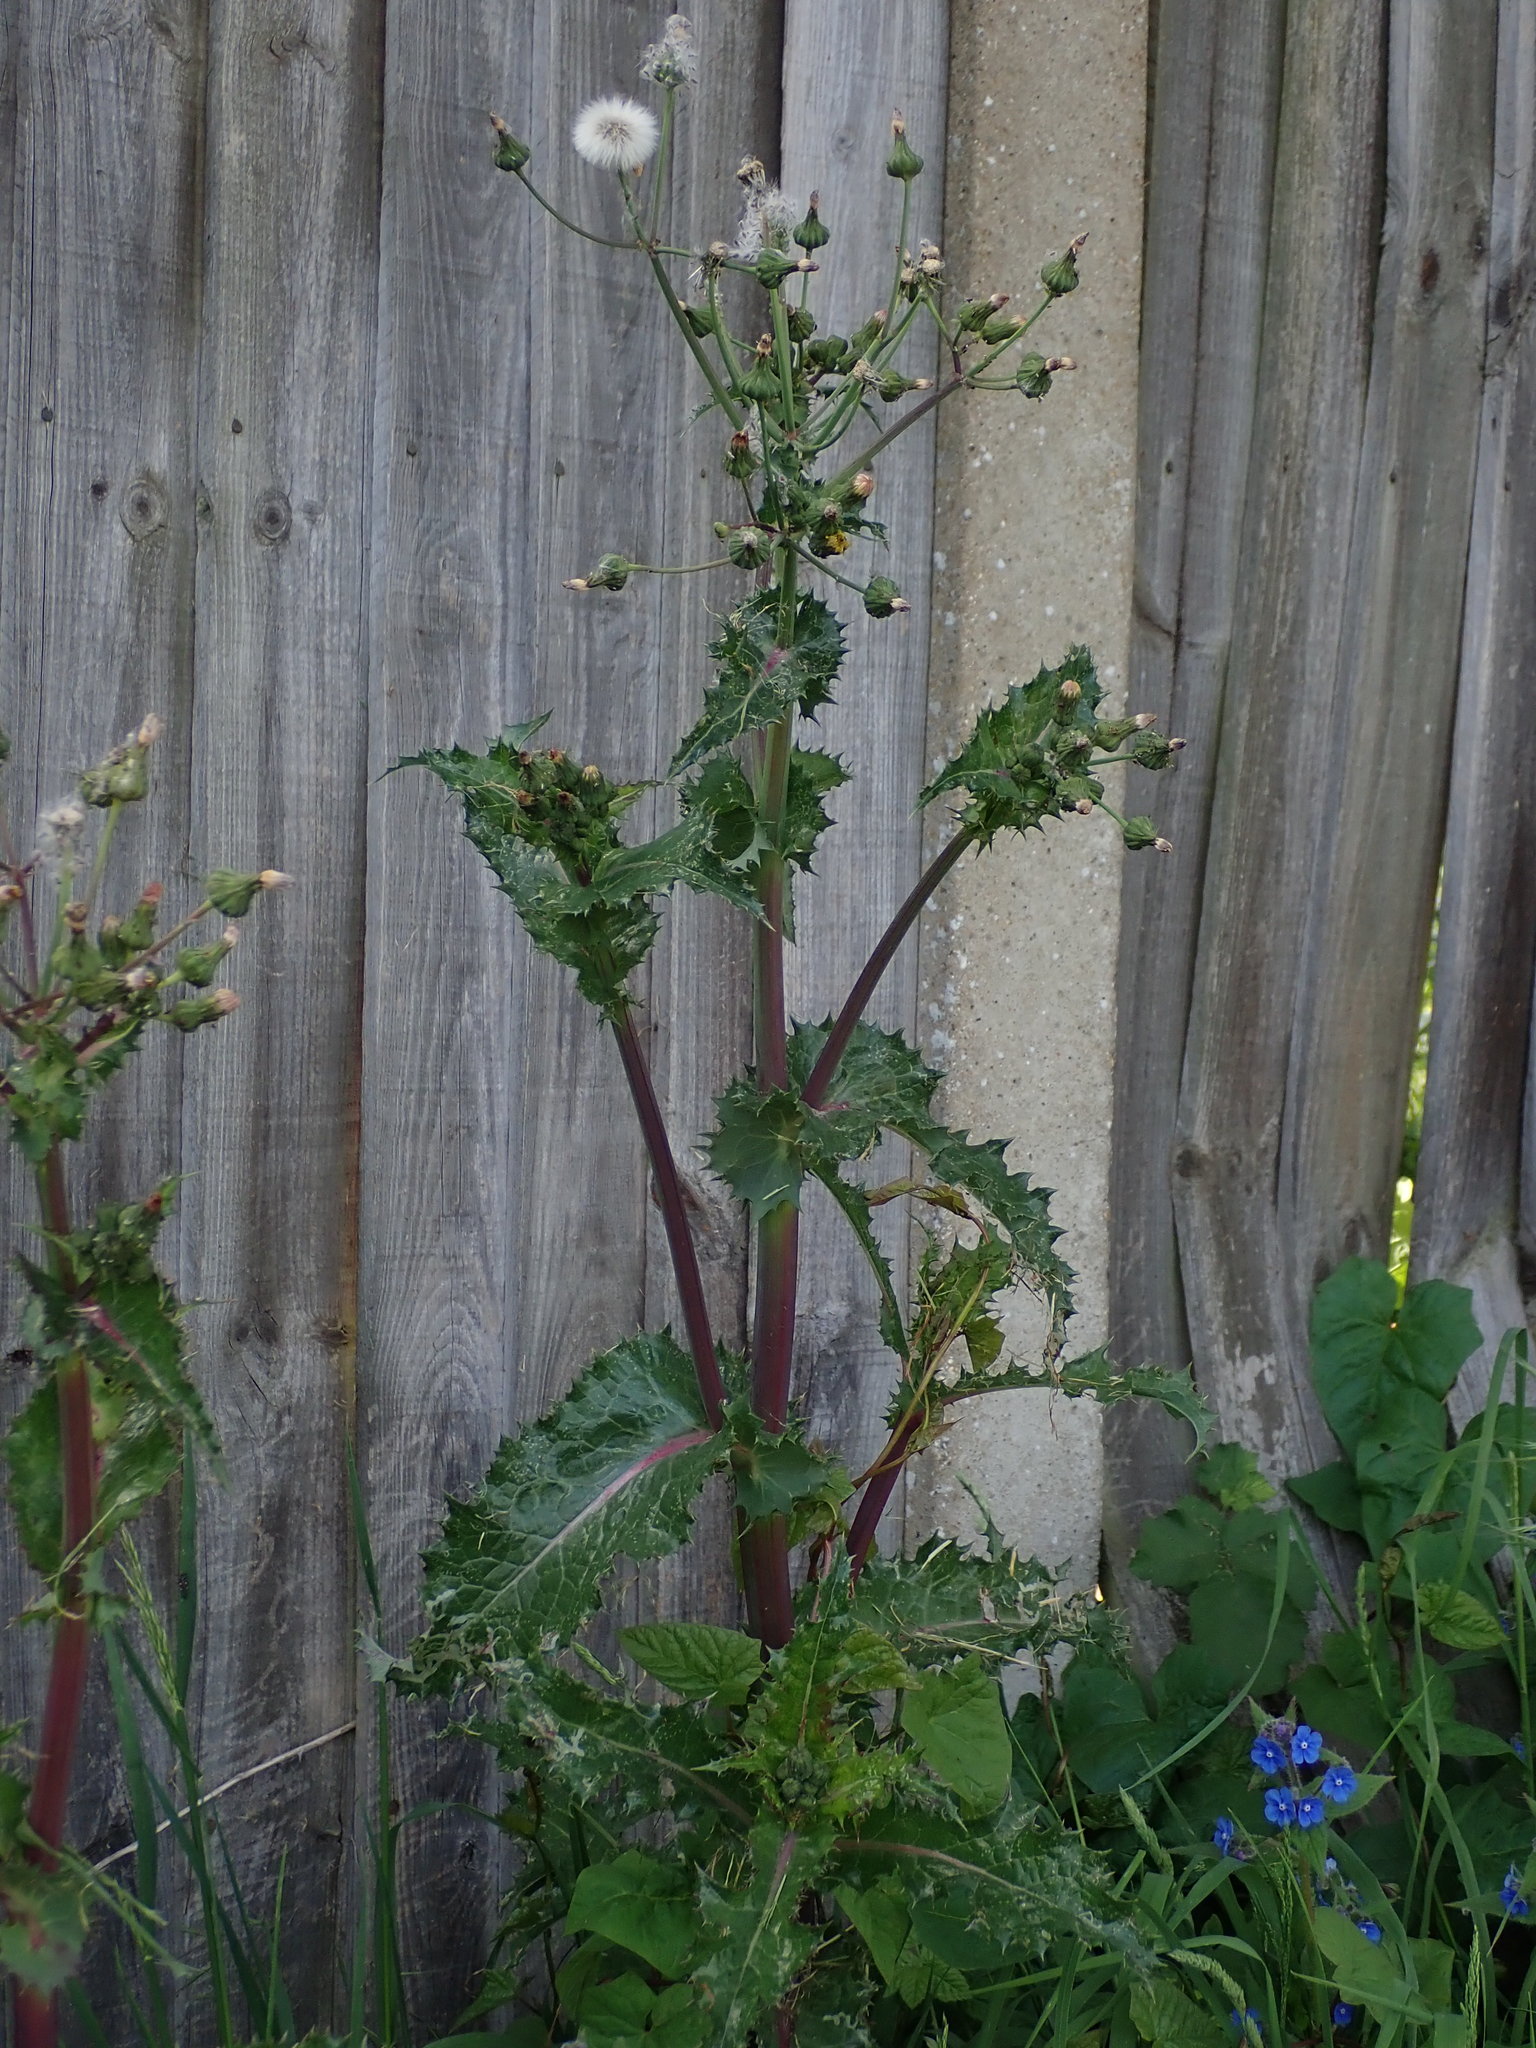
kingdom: Plantae
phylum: Tracheophyta
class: Magnoliopsida
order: Asterales
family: Asteraceae
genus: Sonchus
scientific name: Sonchus asper
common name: Prickly sow-thistle
